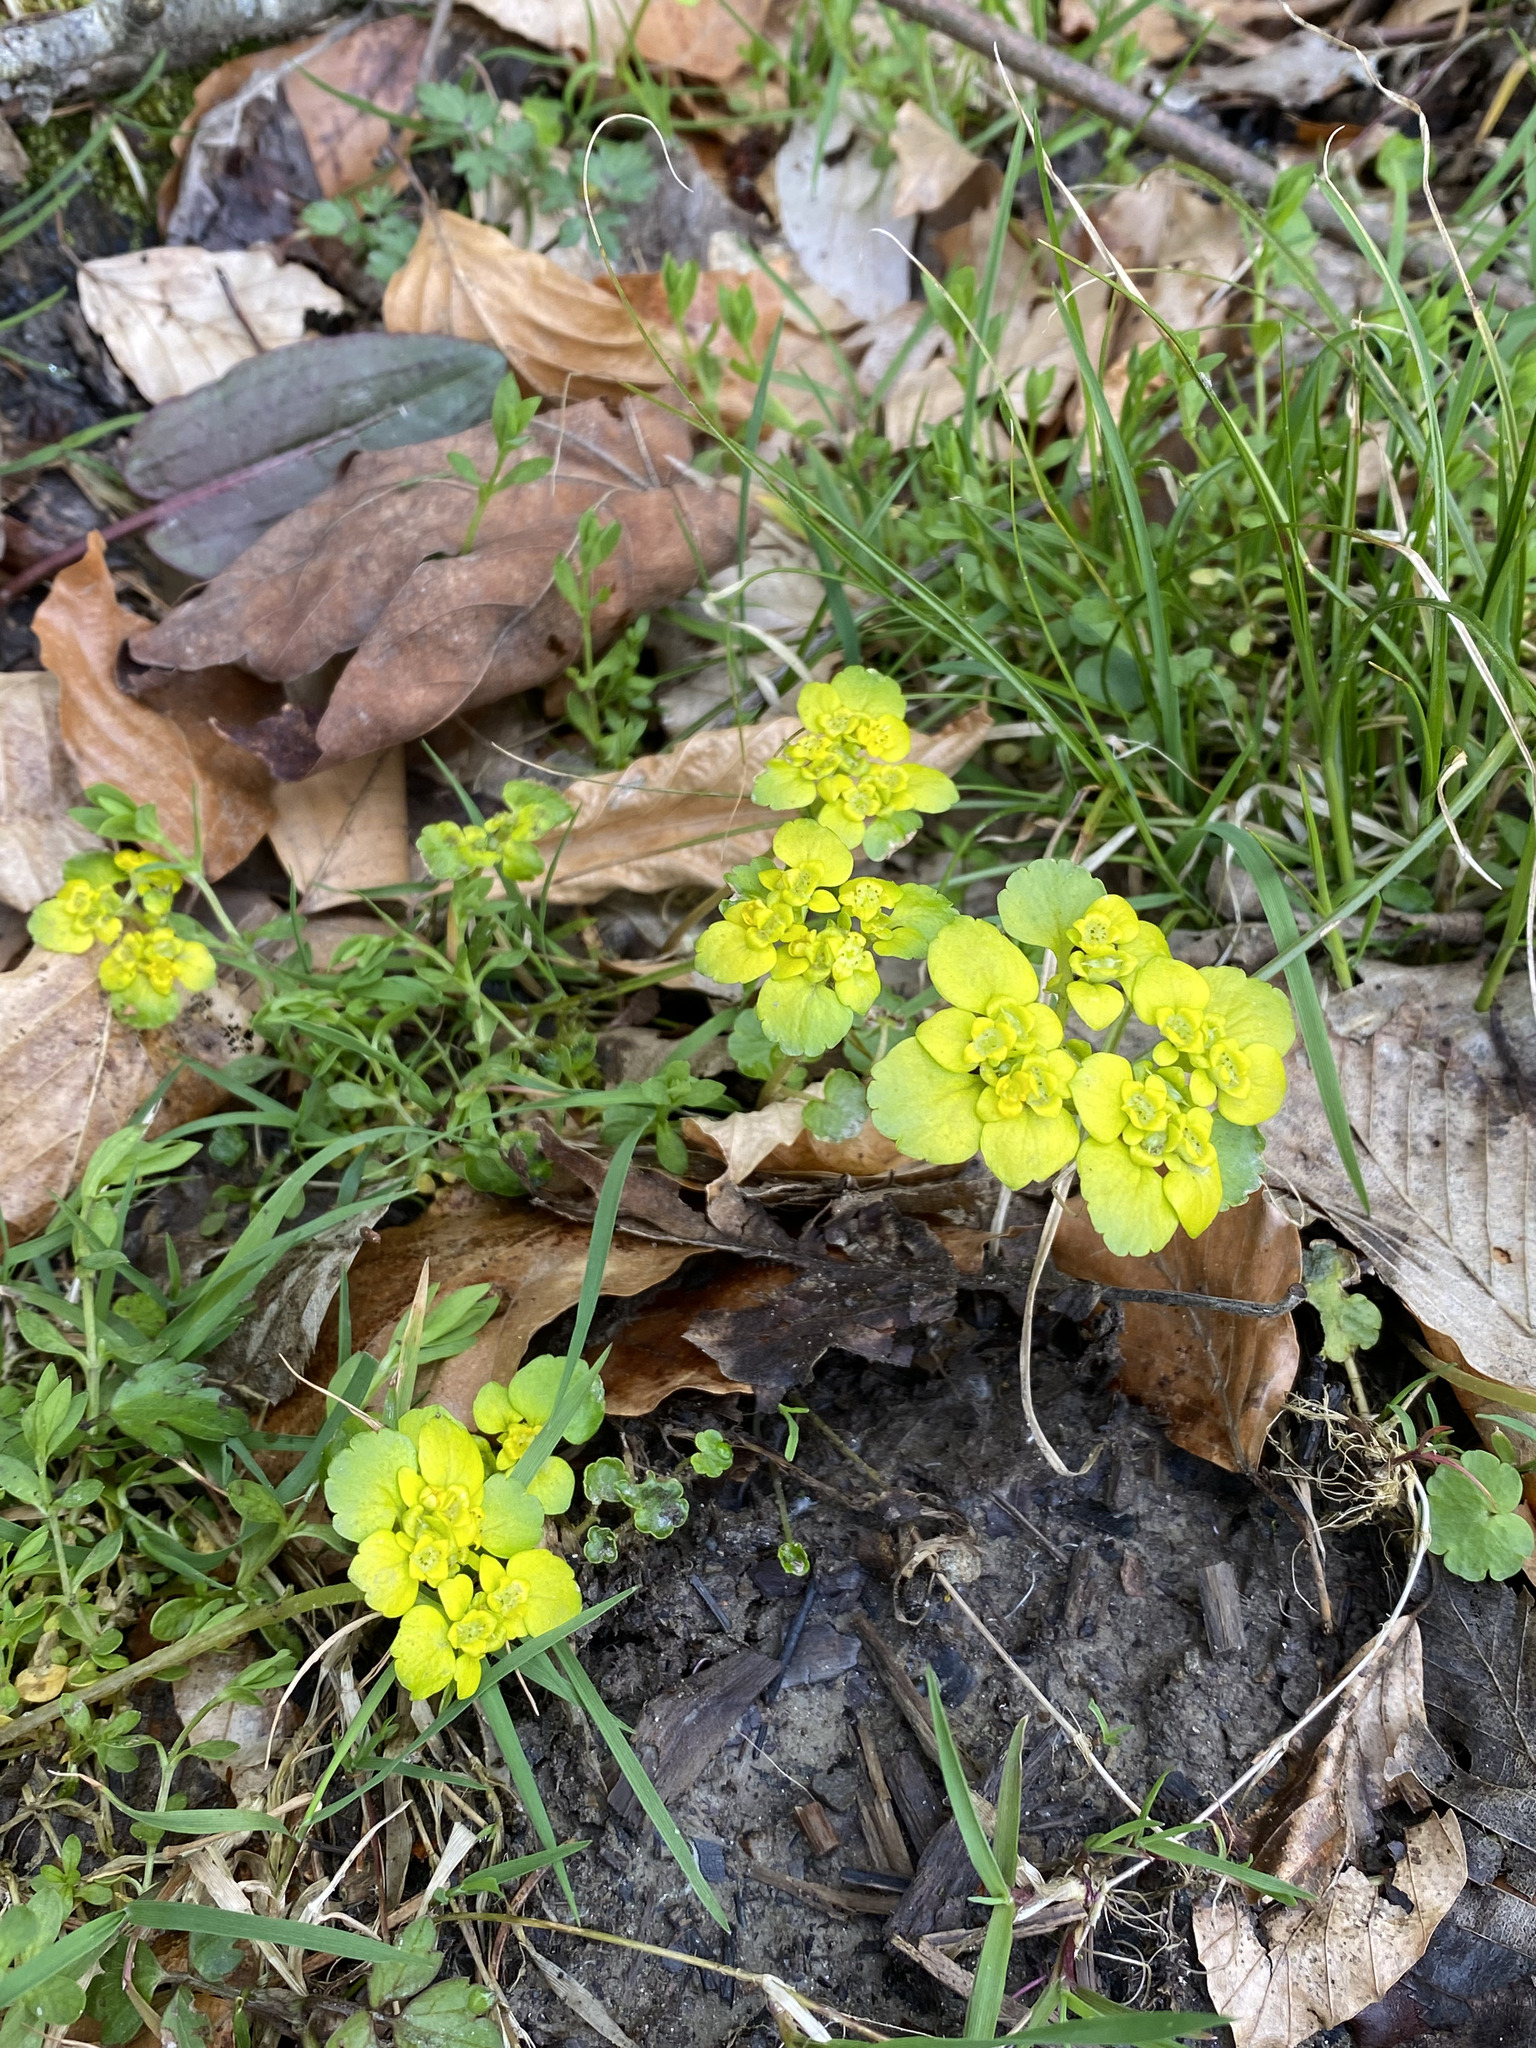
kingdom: Plantae
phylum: Tracheophyta
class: Magnoliopsida
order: Saxifragales
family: Saxifragaceae
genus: Chrysosplenium
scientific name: Chrysosplenium alternifolium
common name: Alternate-leaved golden-saxifrage
